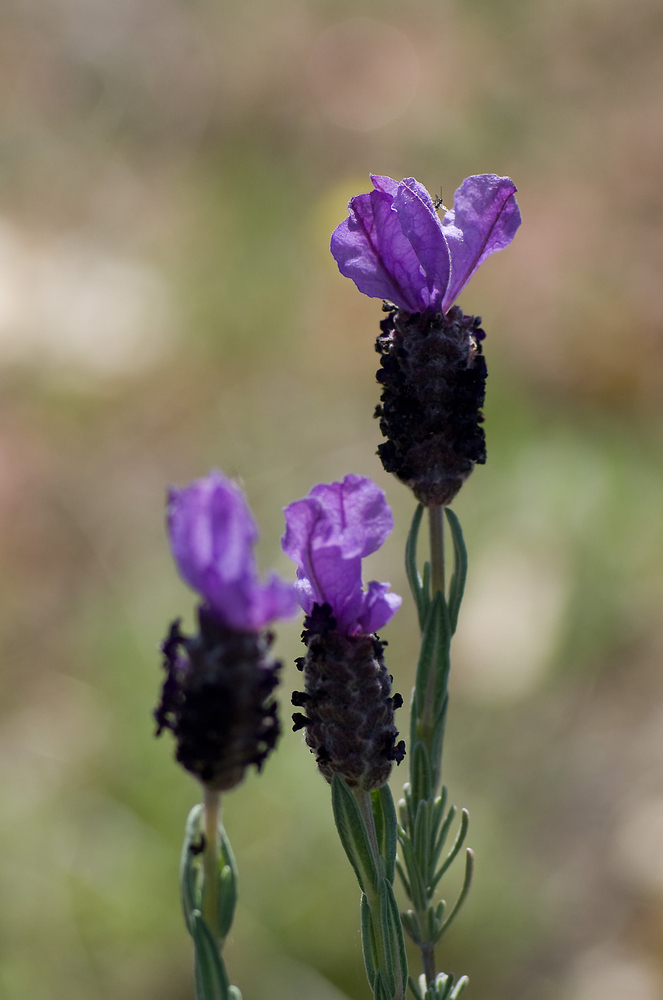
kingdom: Plantae
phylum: Tracheophyta
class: Magnoliopsida
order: Lamiales
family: Lamiaceae
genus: Lavandula
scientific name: Lavandula stoechas
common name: French lavender
